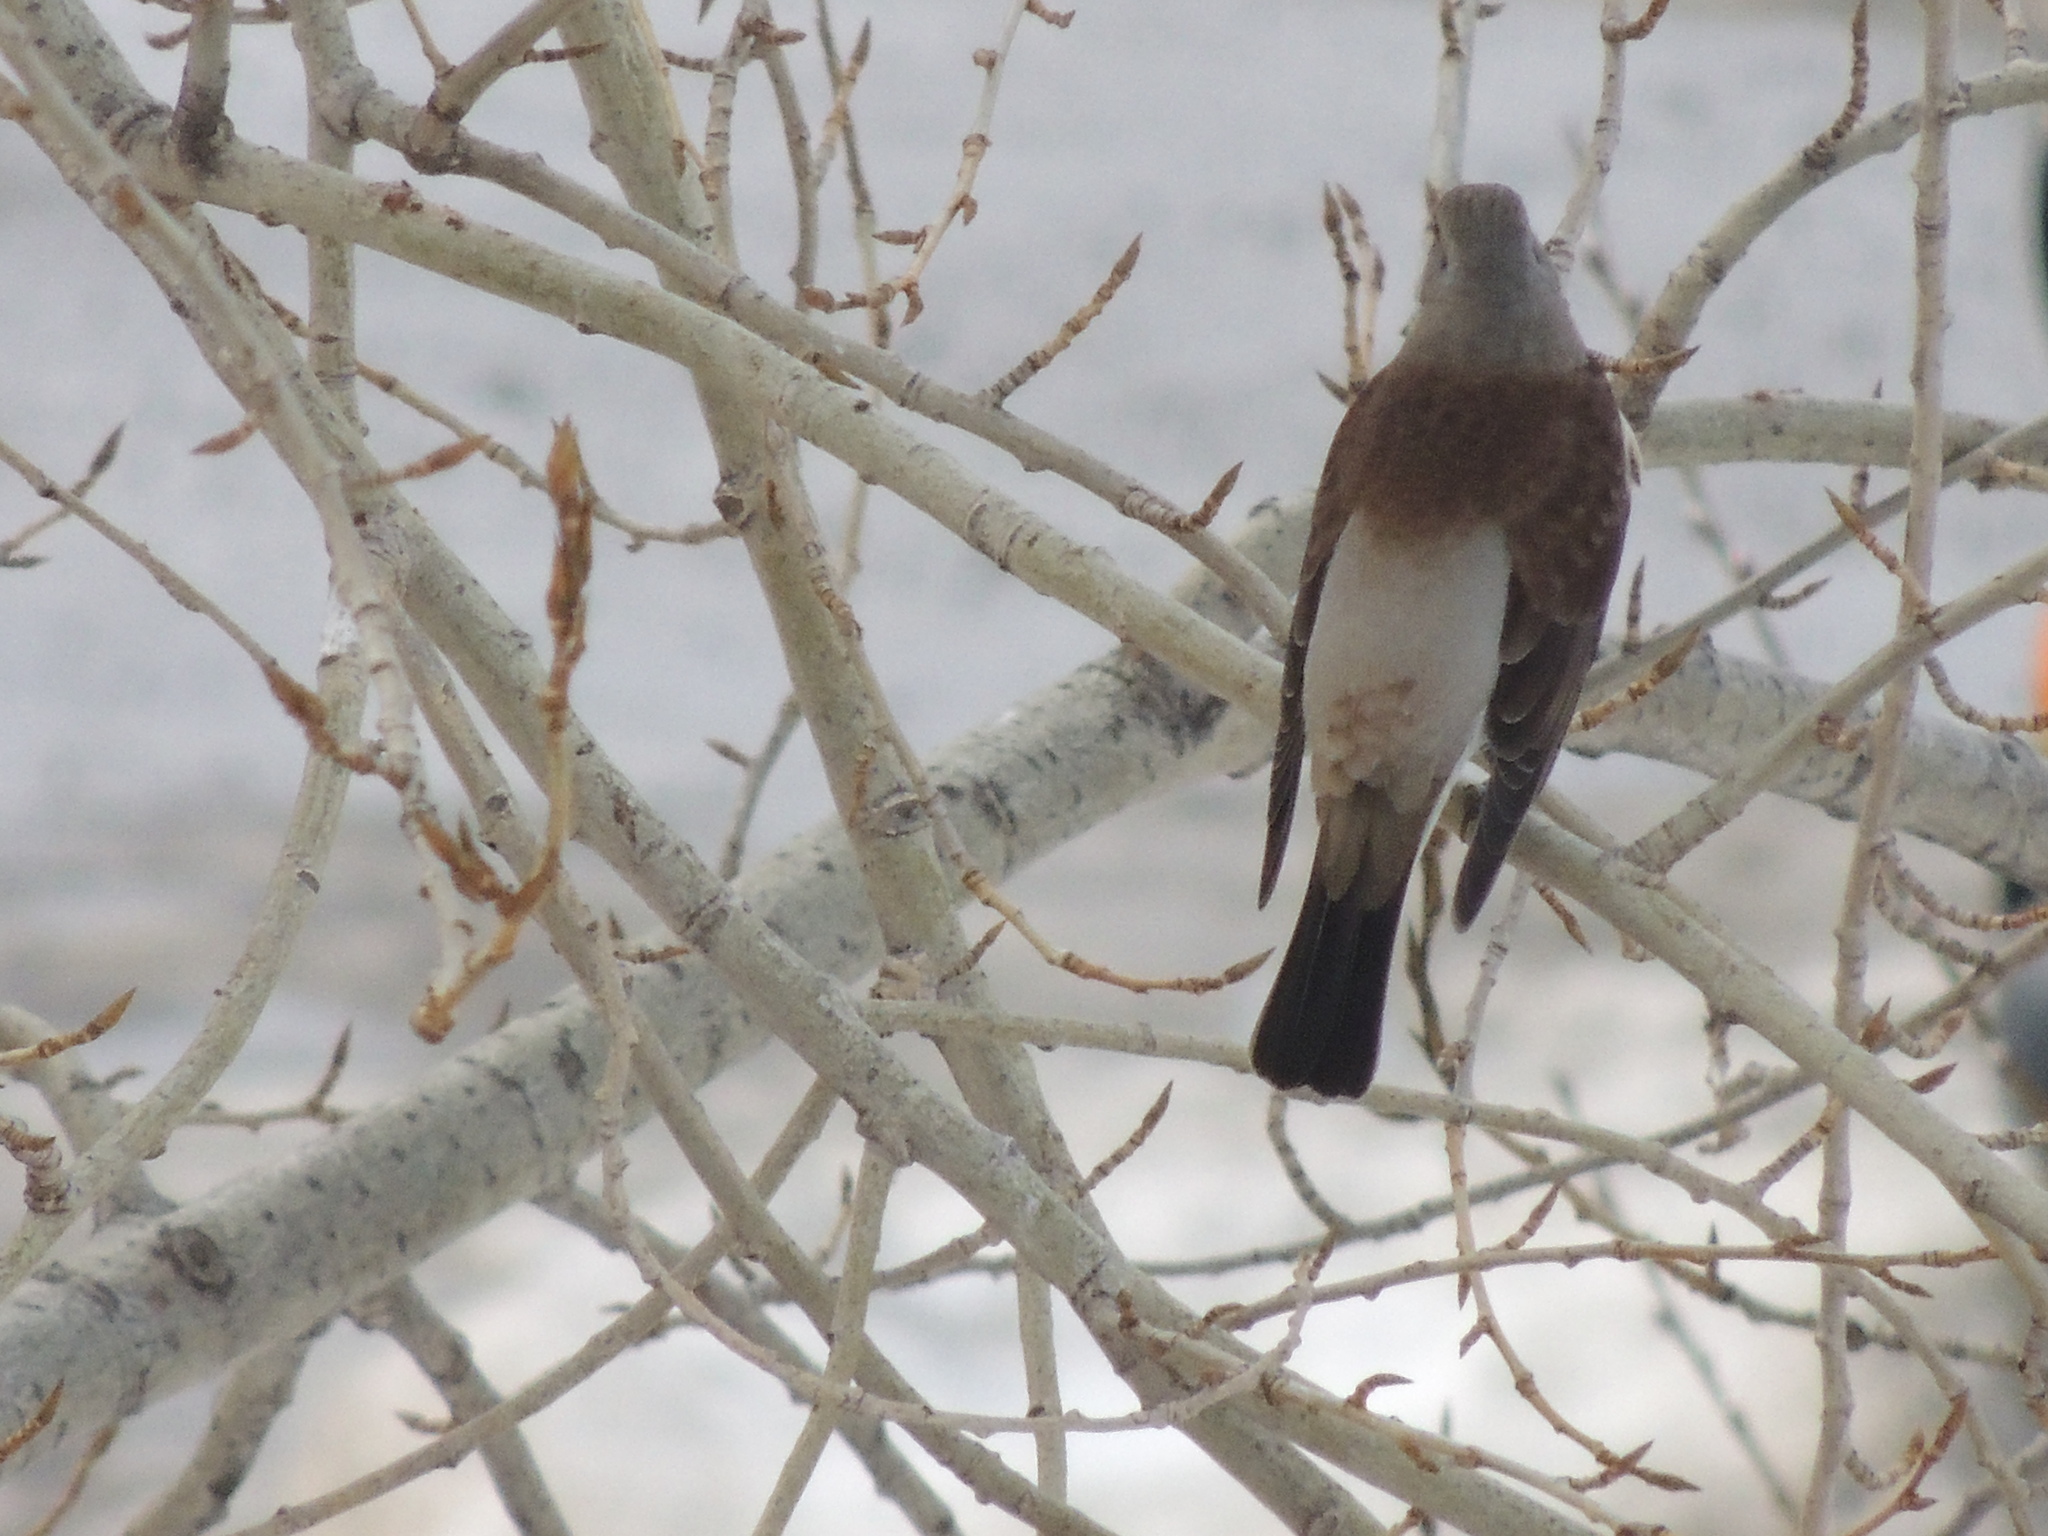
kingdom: Animalia
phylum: Chordata
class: Aves
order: Passeriformes
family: Turdidae
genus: Turdus
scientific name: Turdus pilaris
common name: Fieldfare
